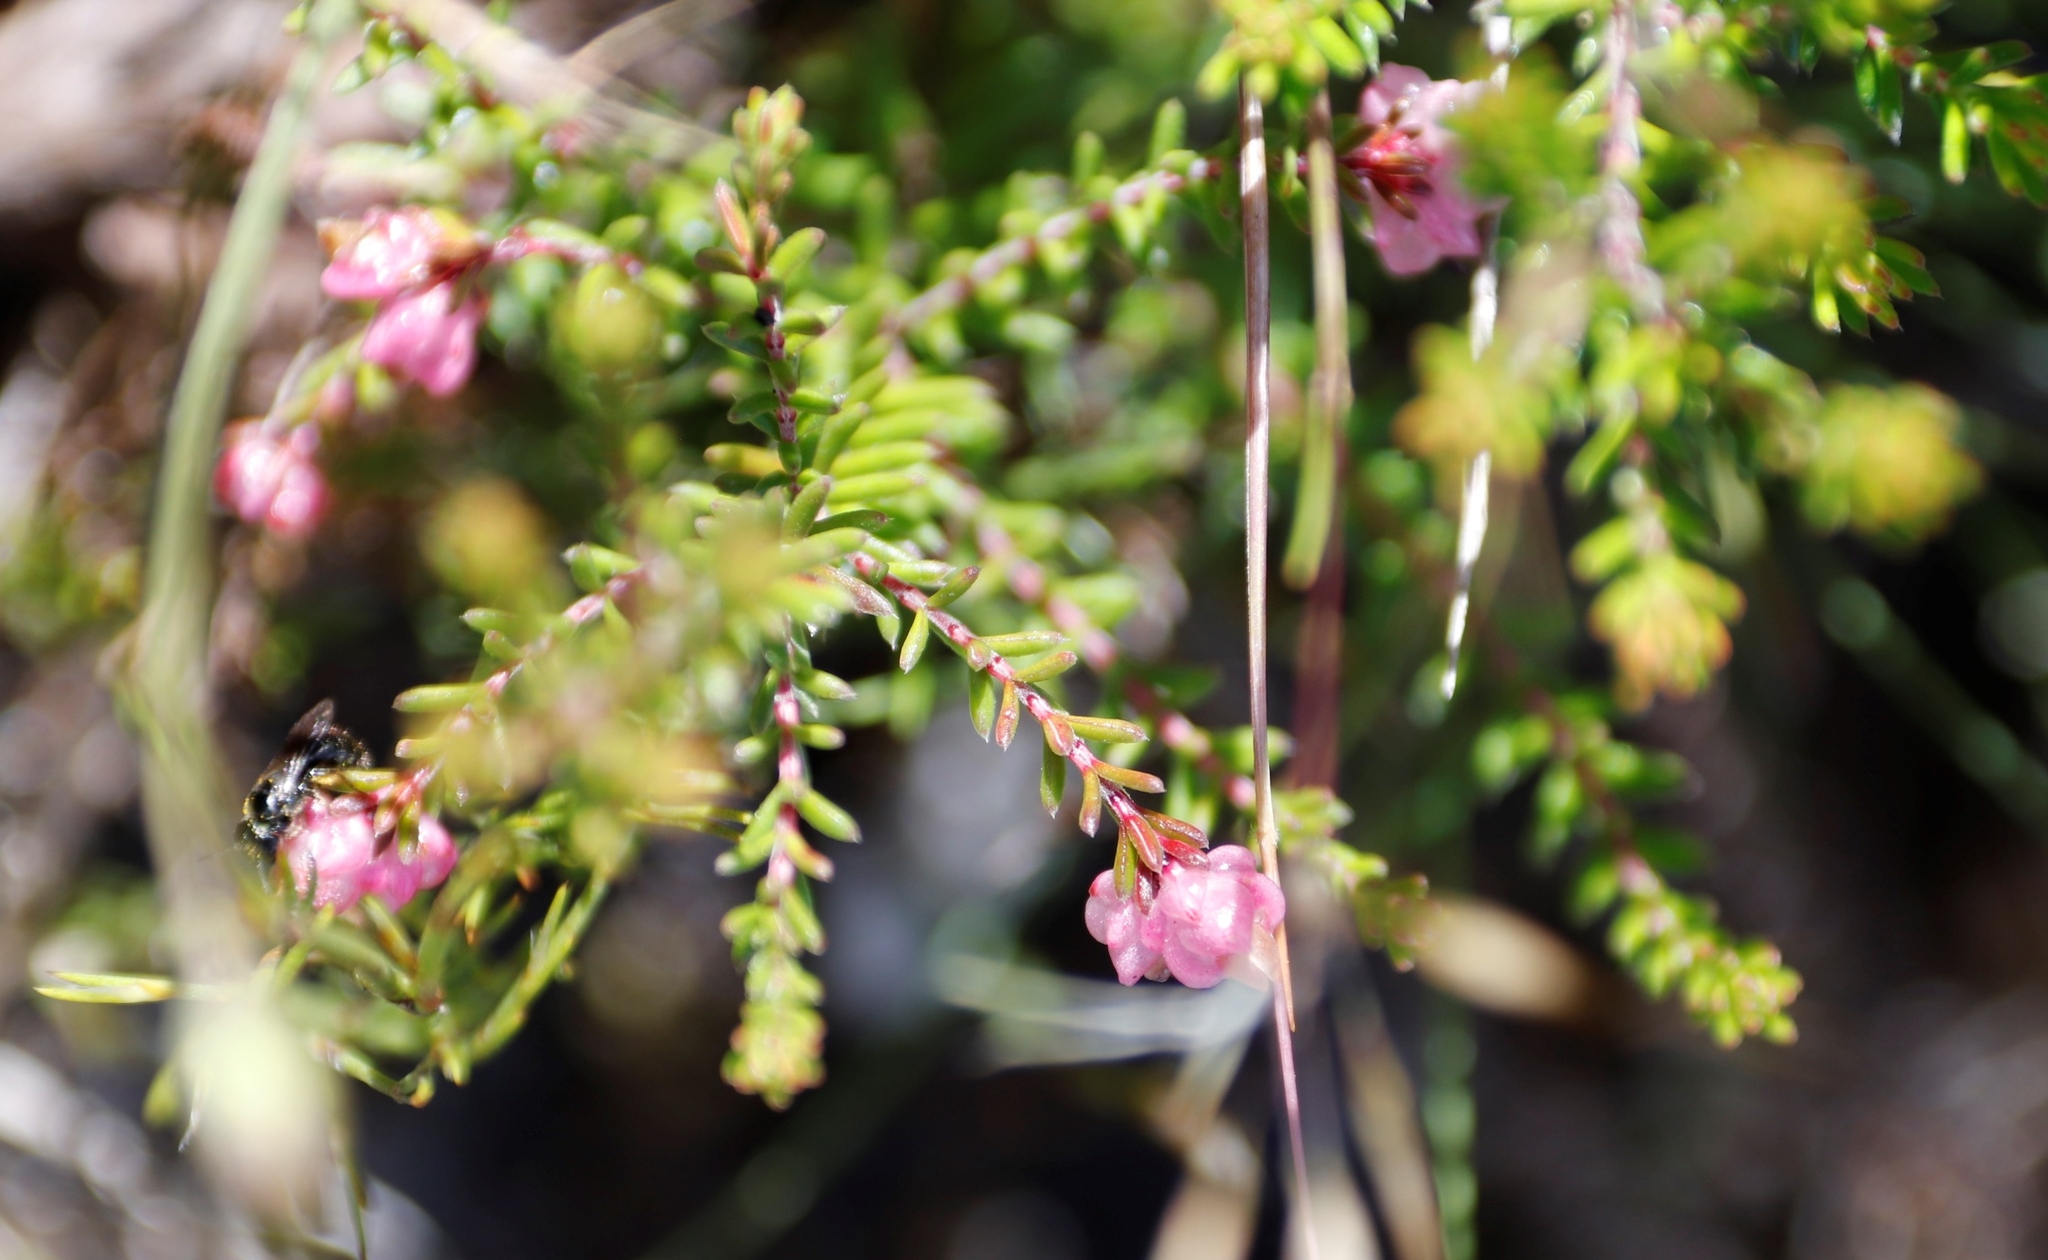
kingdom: Plantae
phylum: Tracheophyta
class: Magnoliopsida
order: Ericales
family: Ericaceae
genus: Erica
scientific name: Erica spumosa
